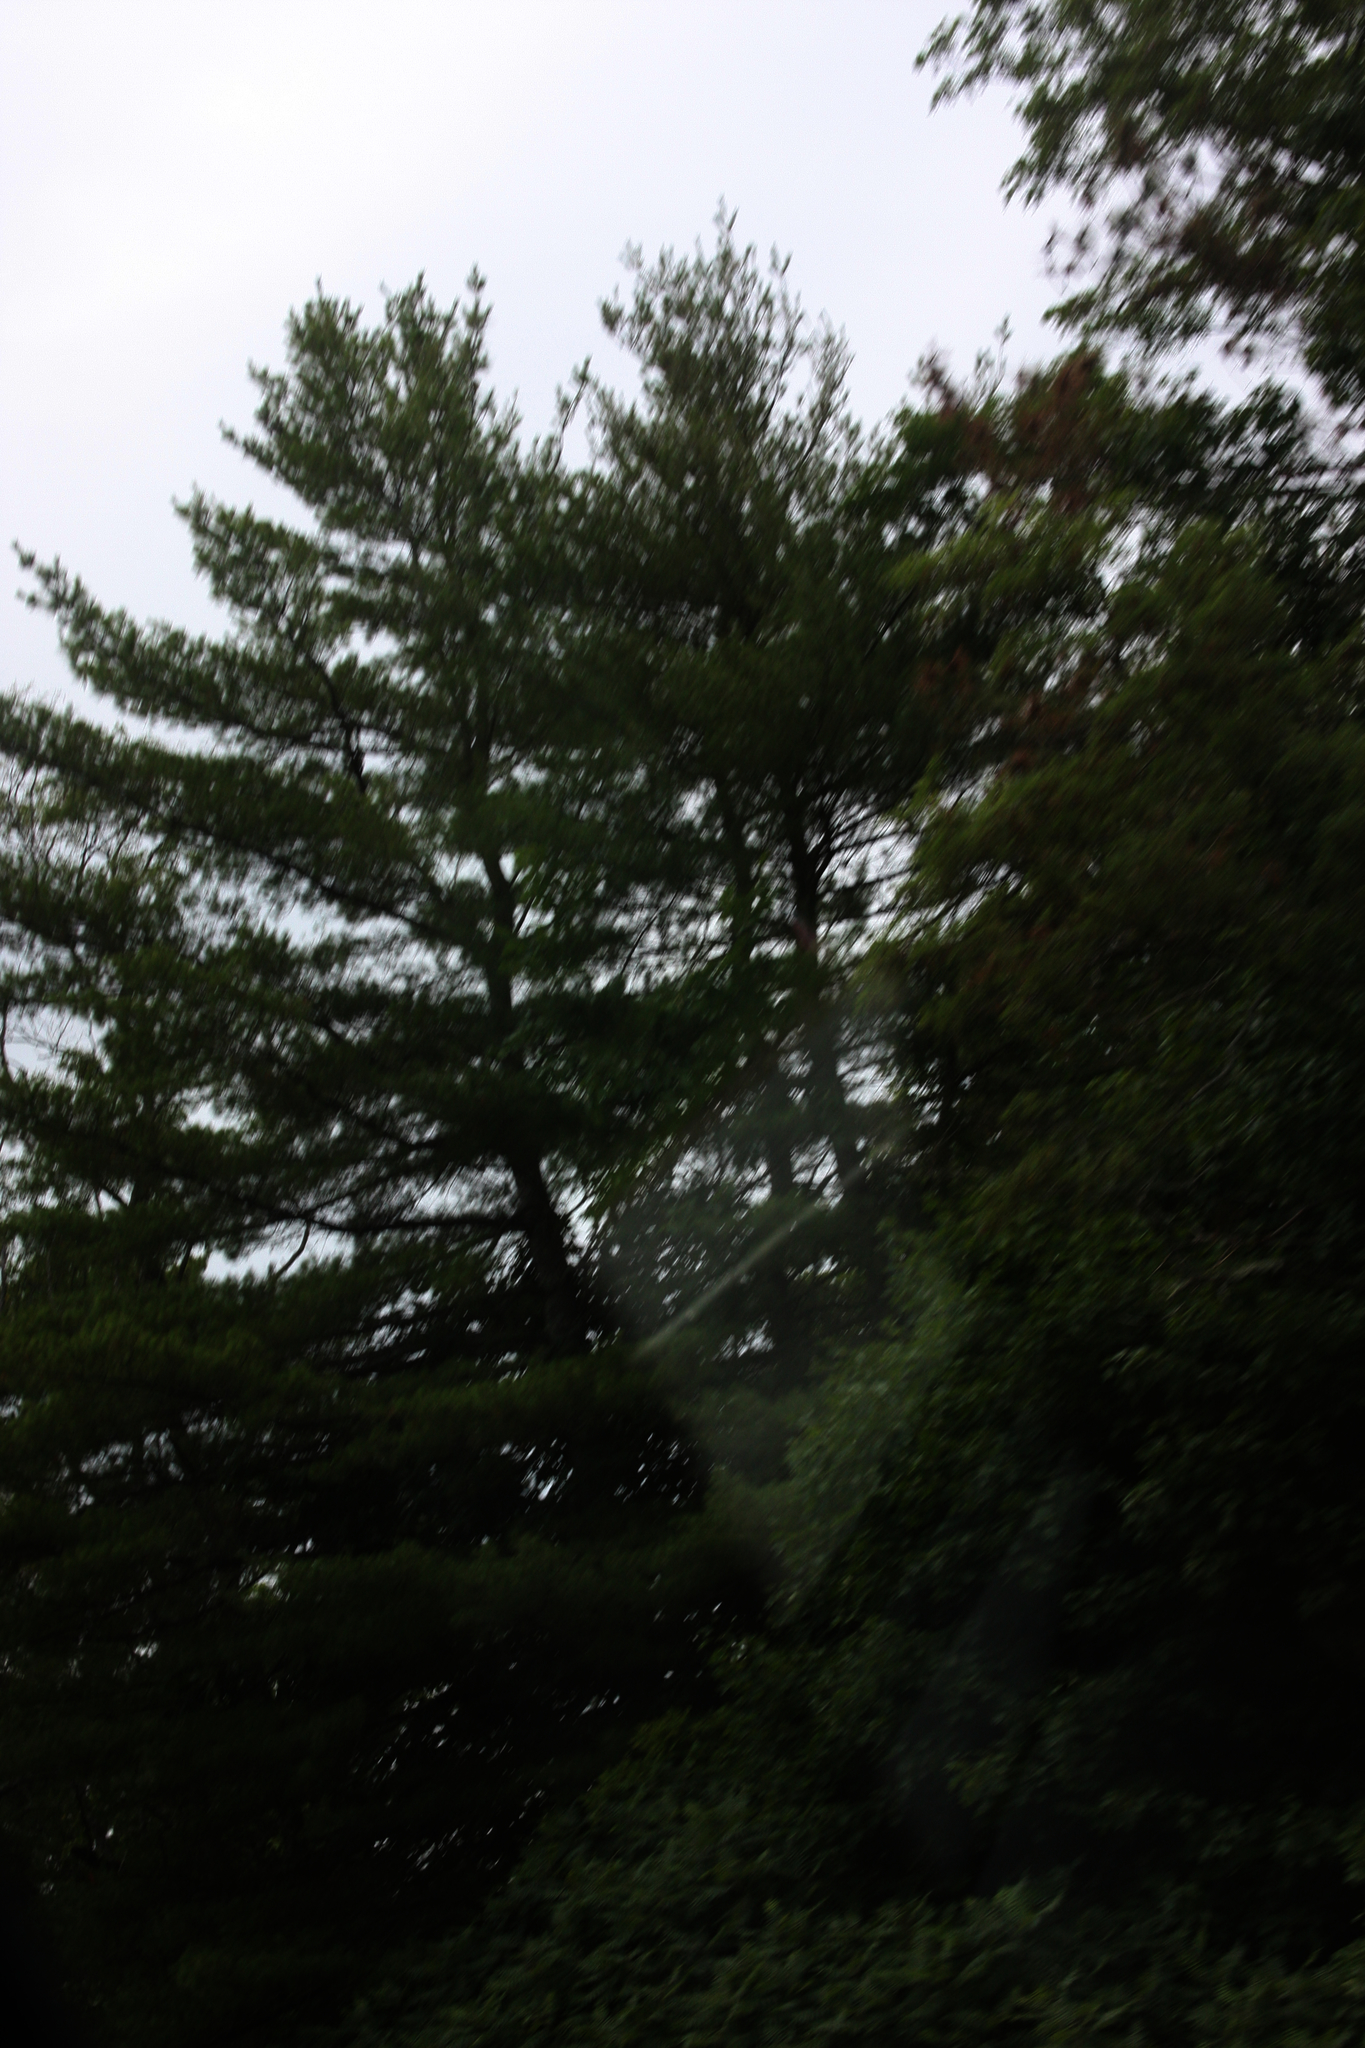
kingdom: Plantae
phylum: Tracheophyta
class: Pinopsida
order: Pinales
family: Pinaceae
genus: Pinus
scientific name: Pinus strobus
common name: Weymouth pine
